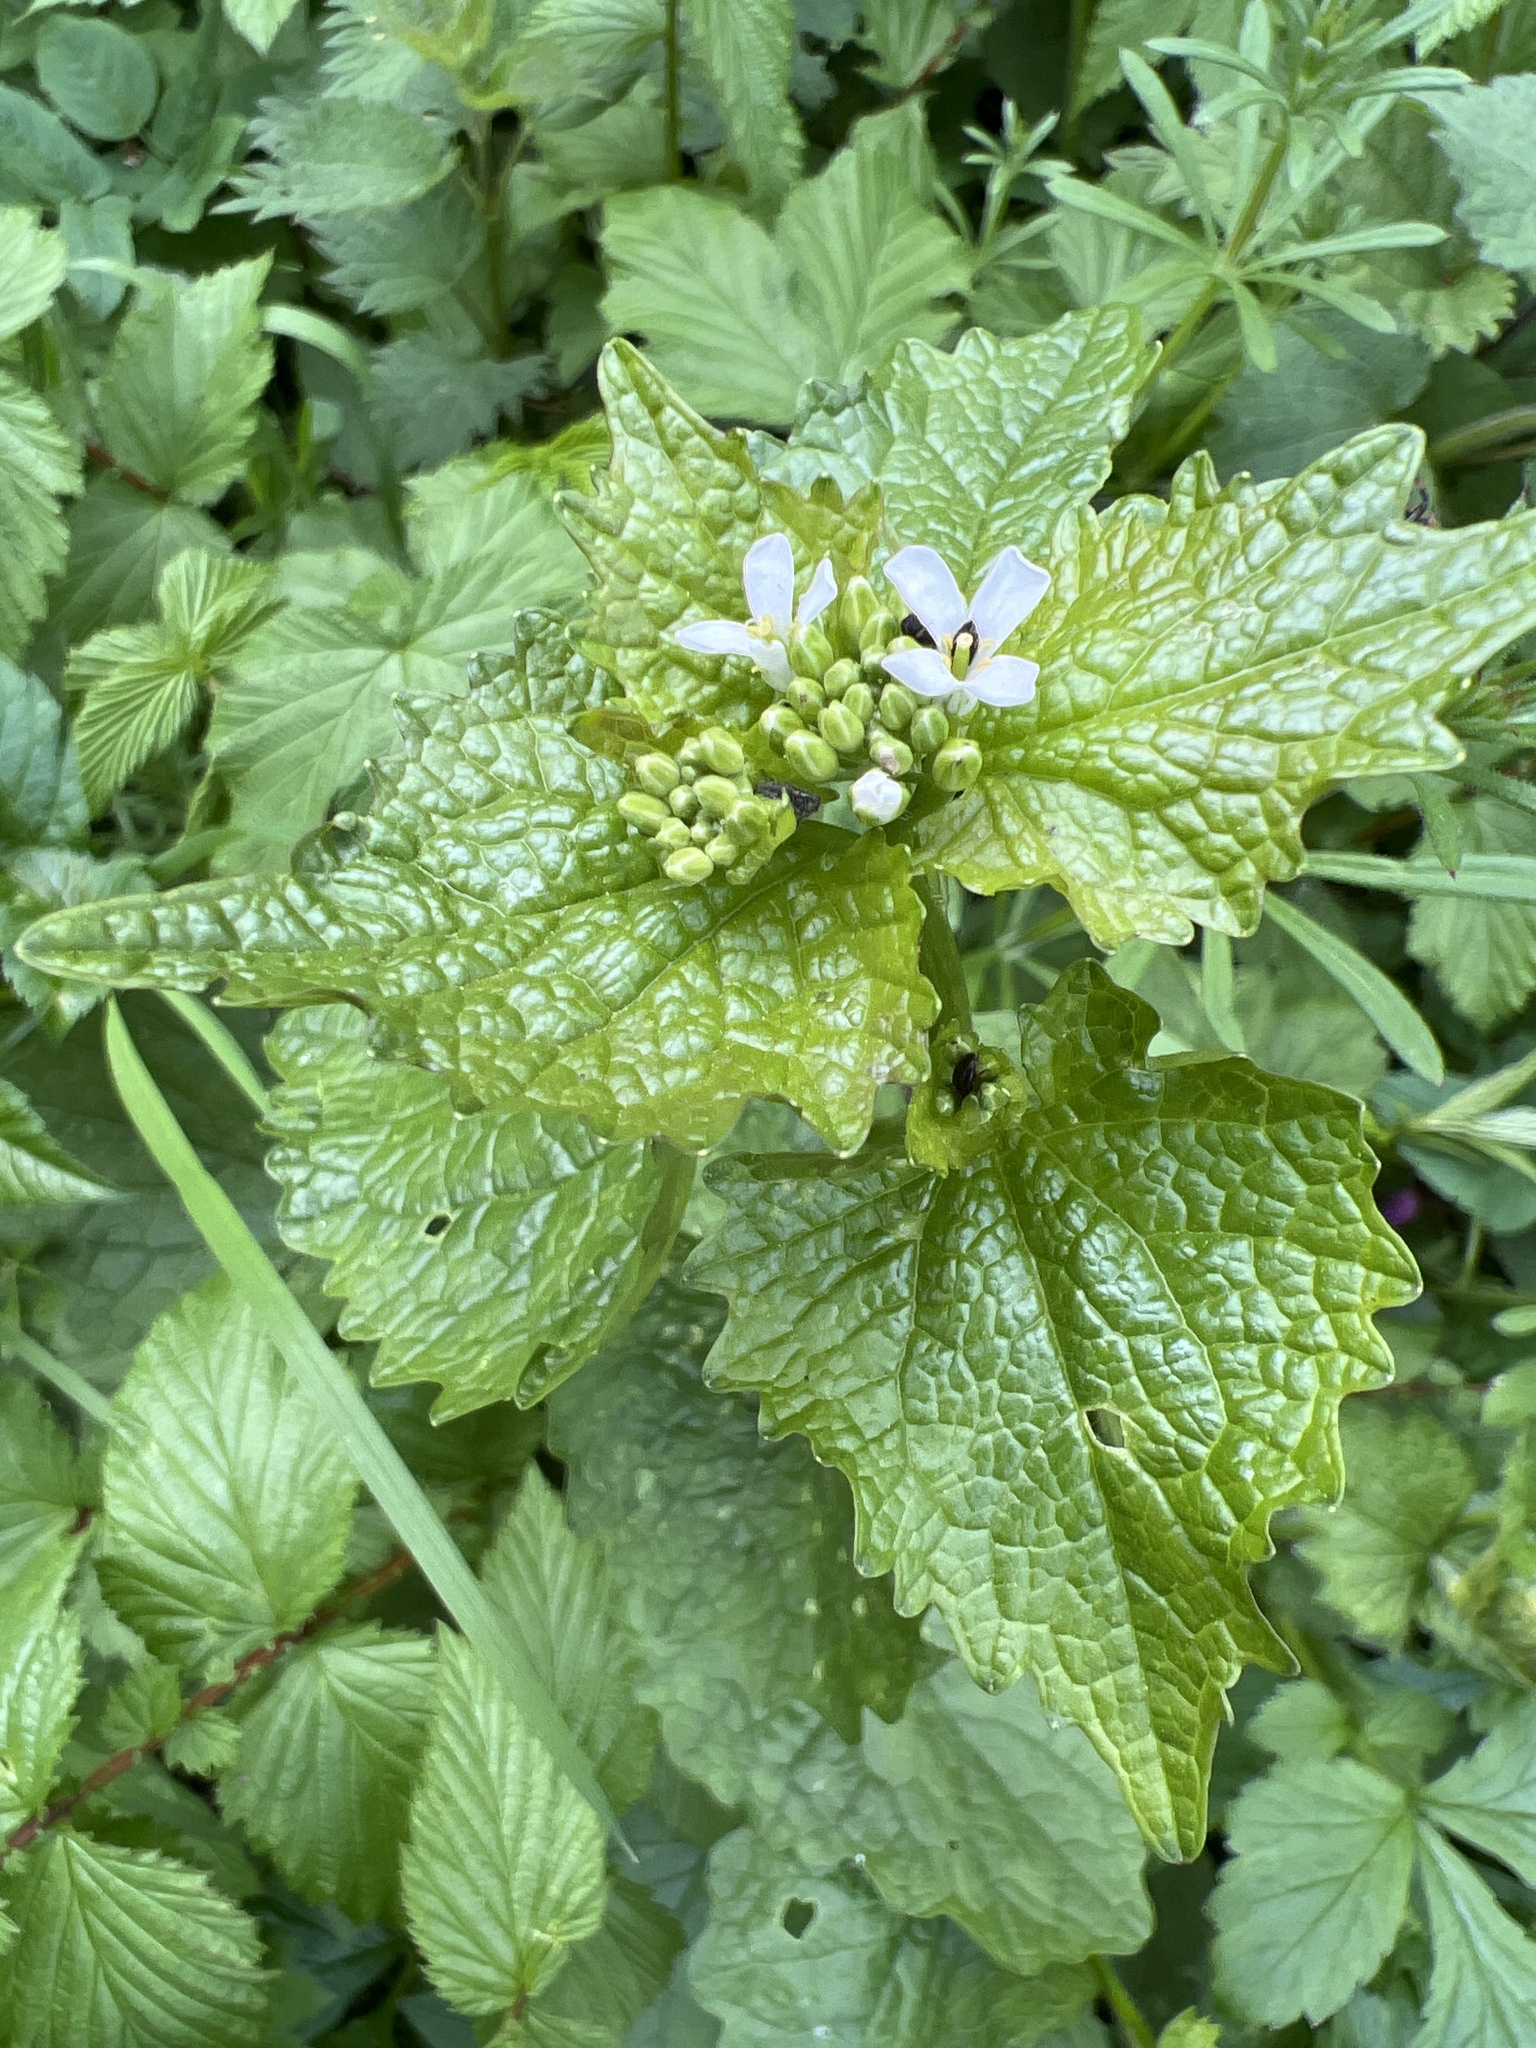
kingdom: Plantae
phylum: Tracheophyta
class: Magnoliopsida
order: Brassicales
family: Brassicaceae
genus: Alliaria
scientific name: Alliaria petiolata
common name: Garlic mustard
